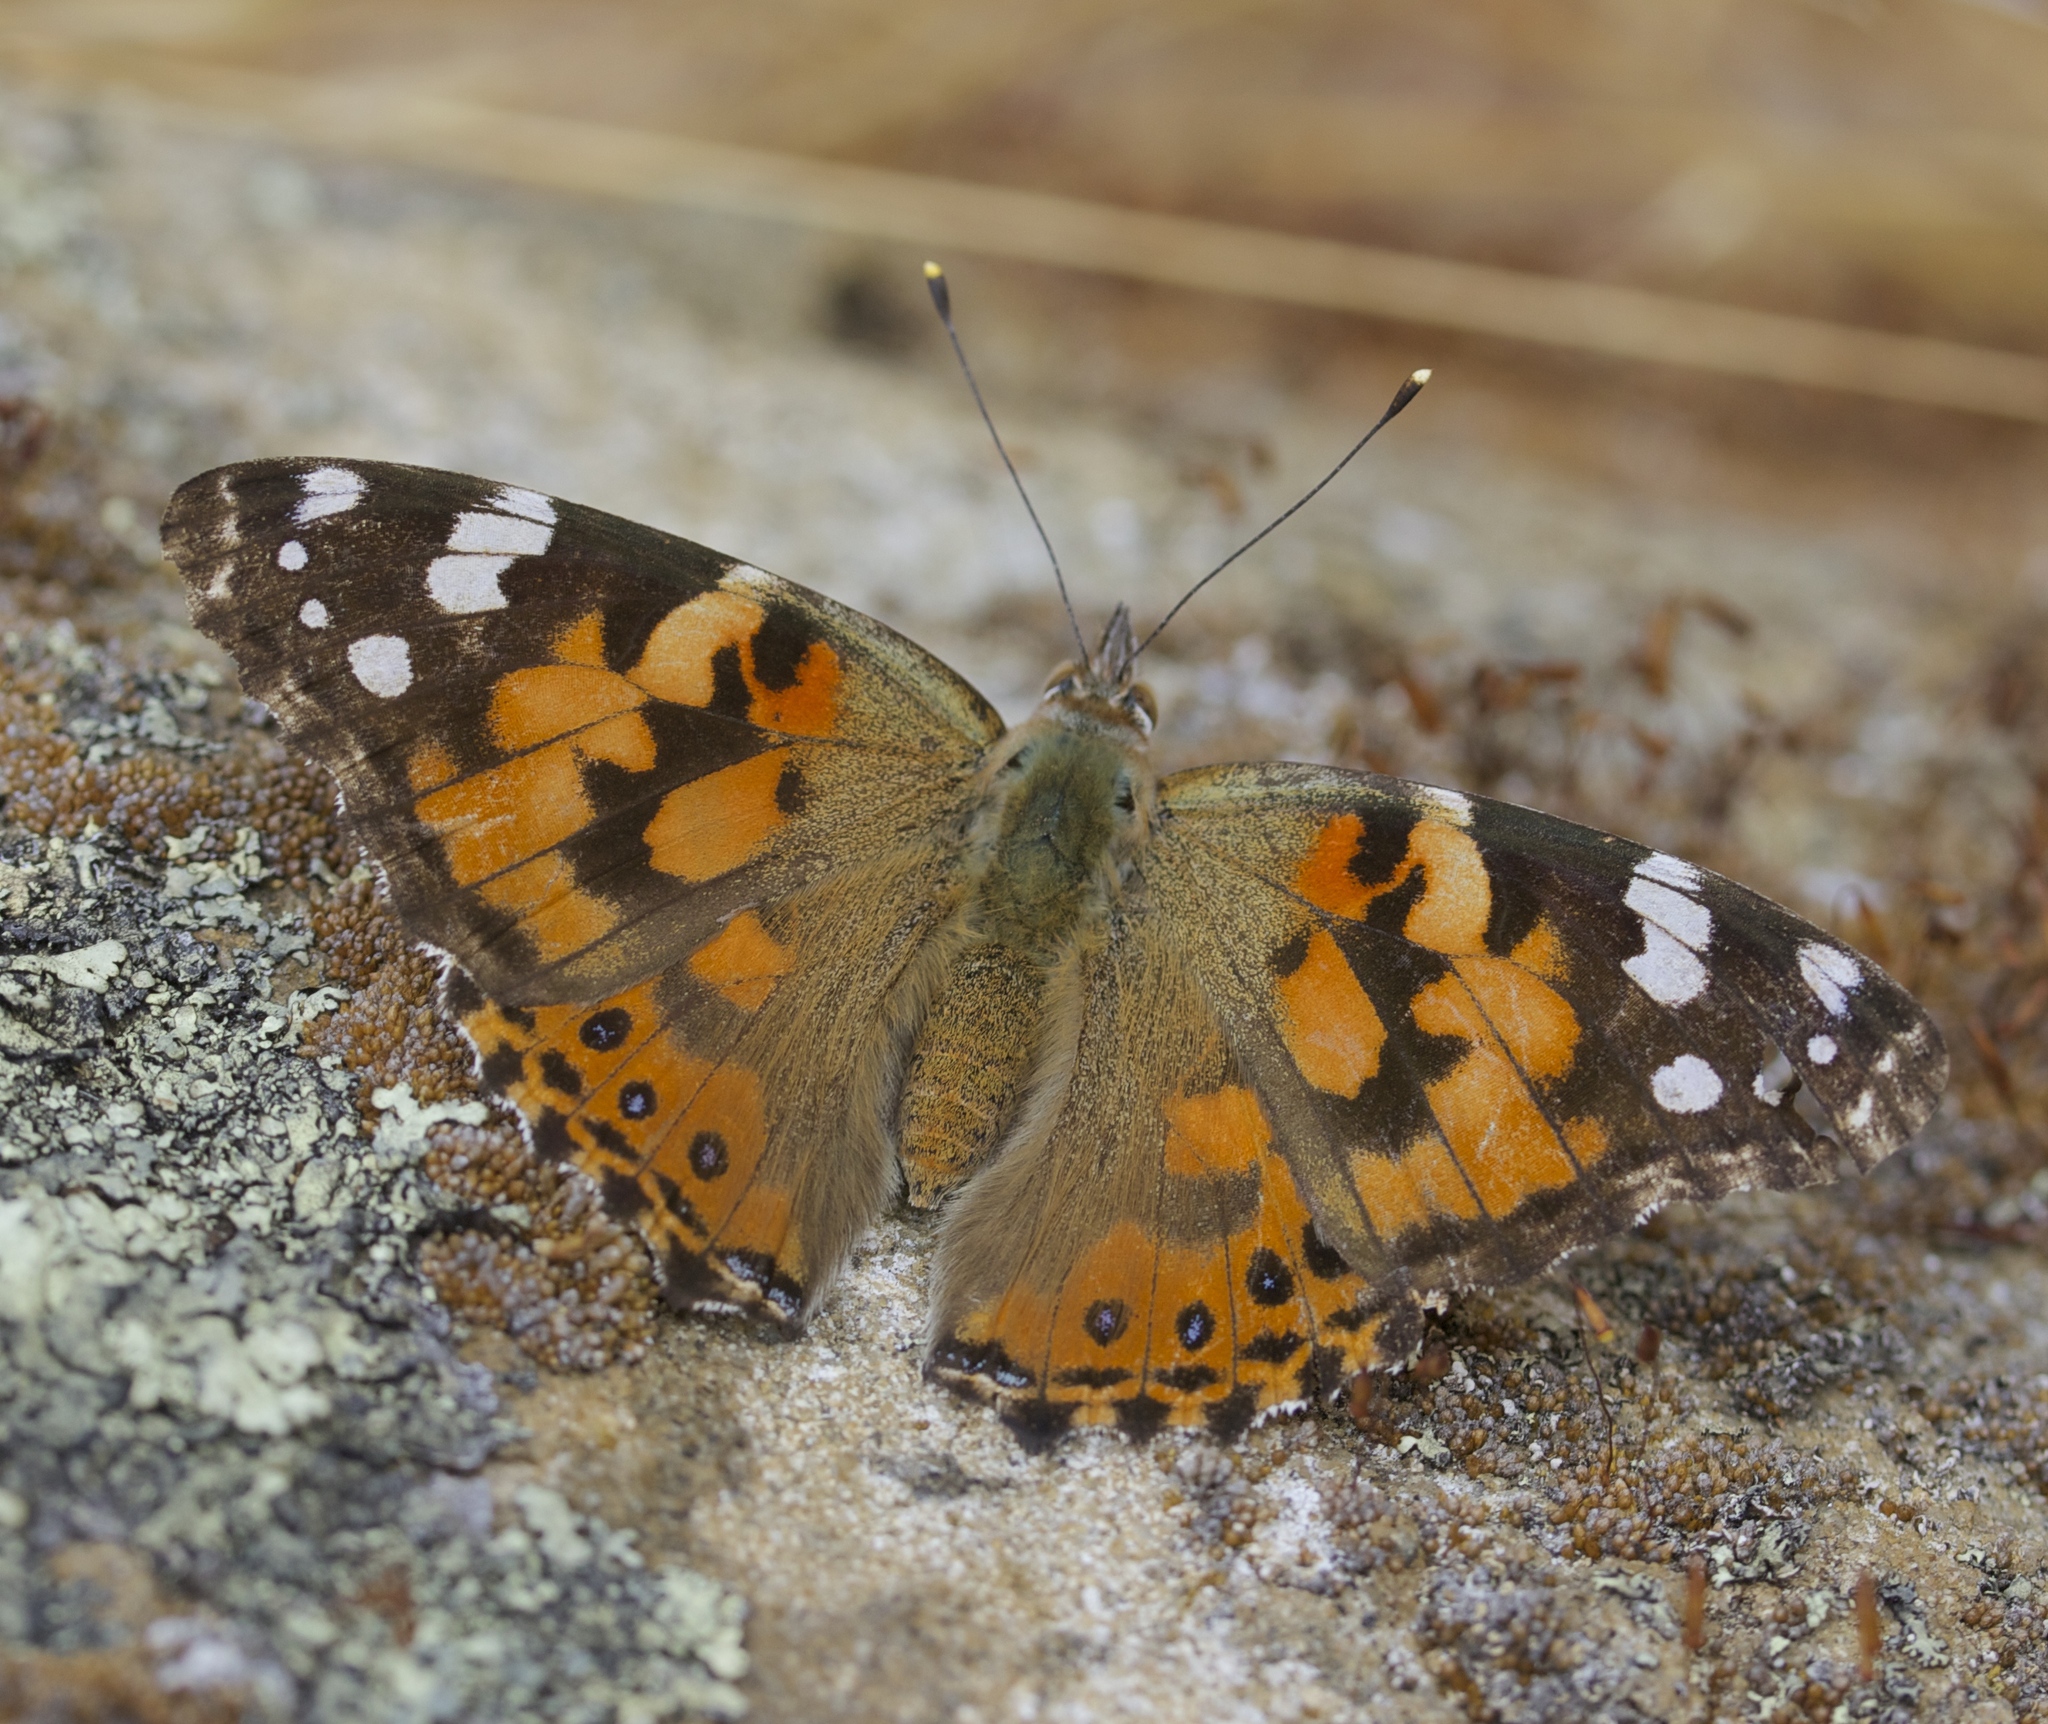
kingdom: Animalia
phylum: Arthropoda
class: Insecta
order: Lepidoptera
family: Nymphalidae
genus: Vanessa
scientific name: Vanessa cardui
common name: Painted lady
